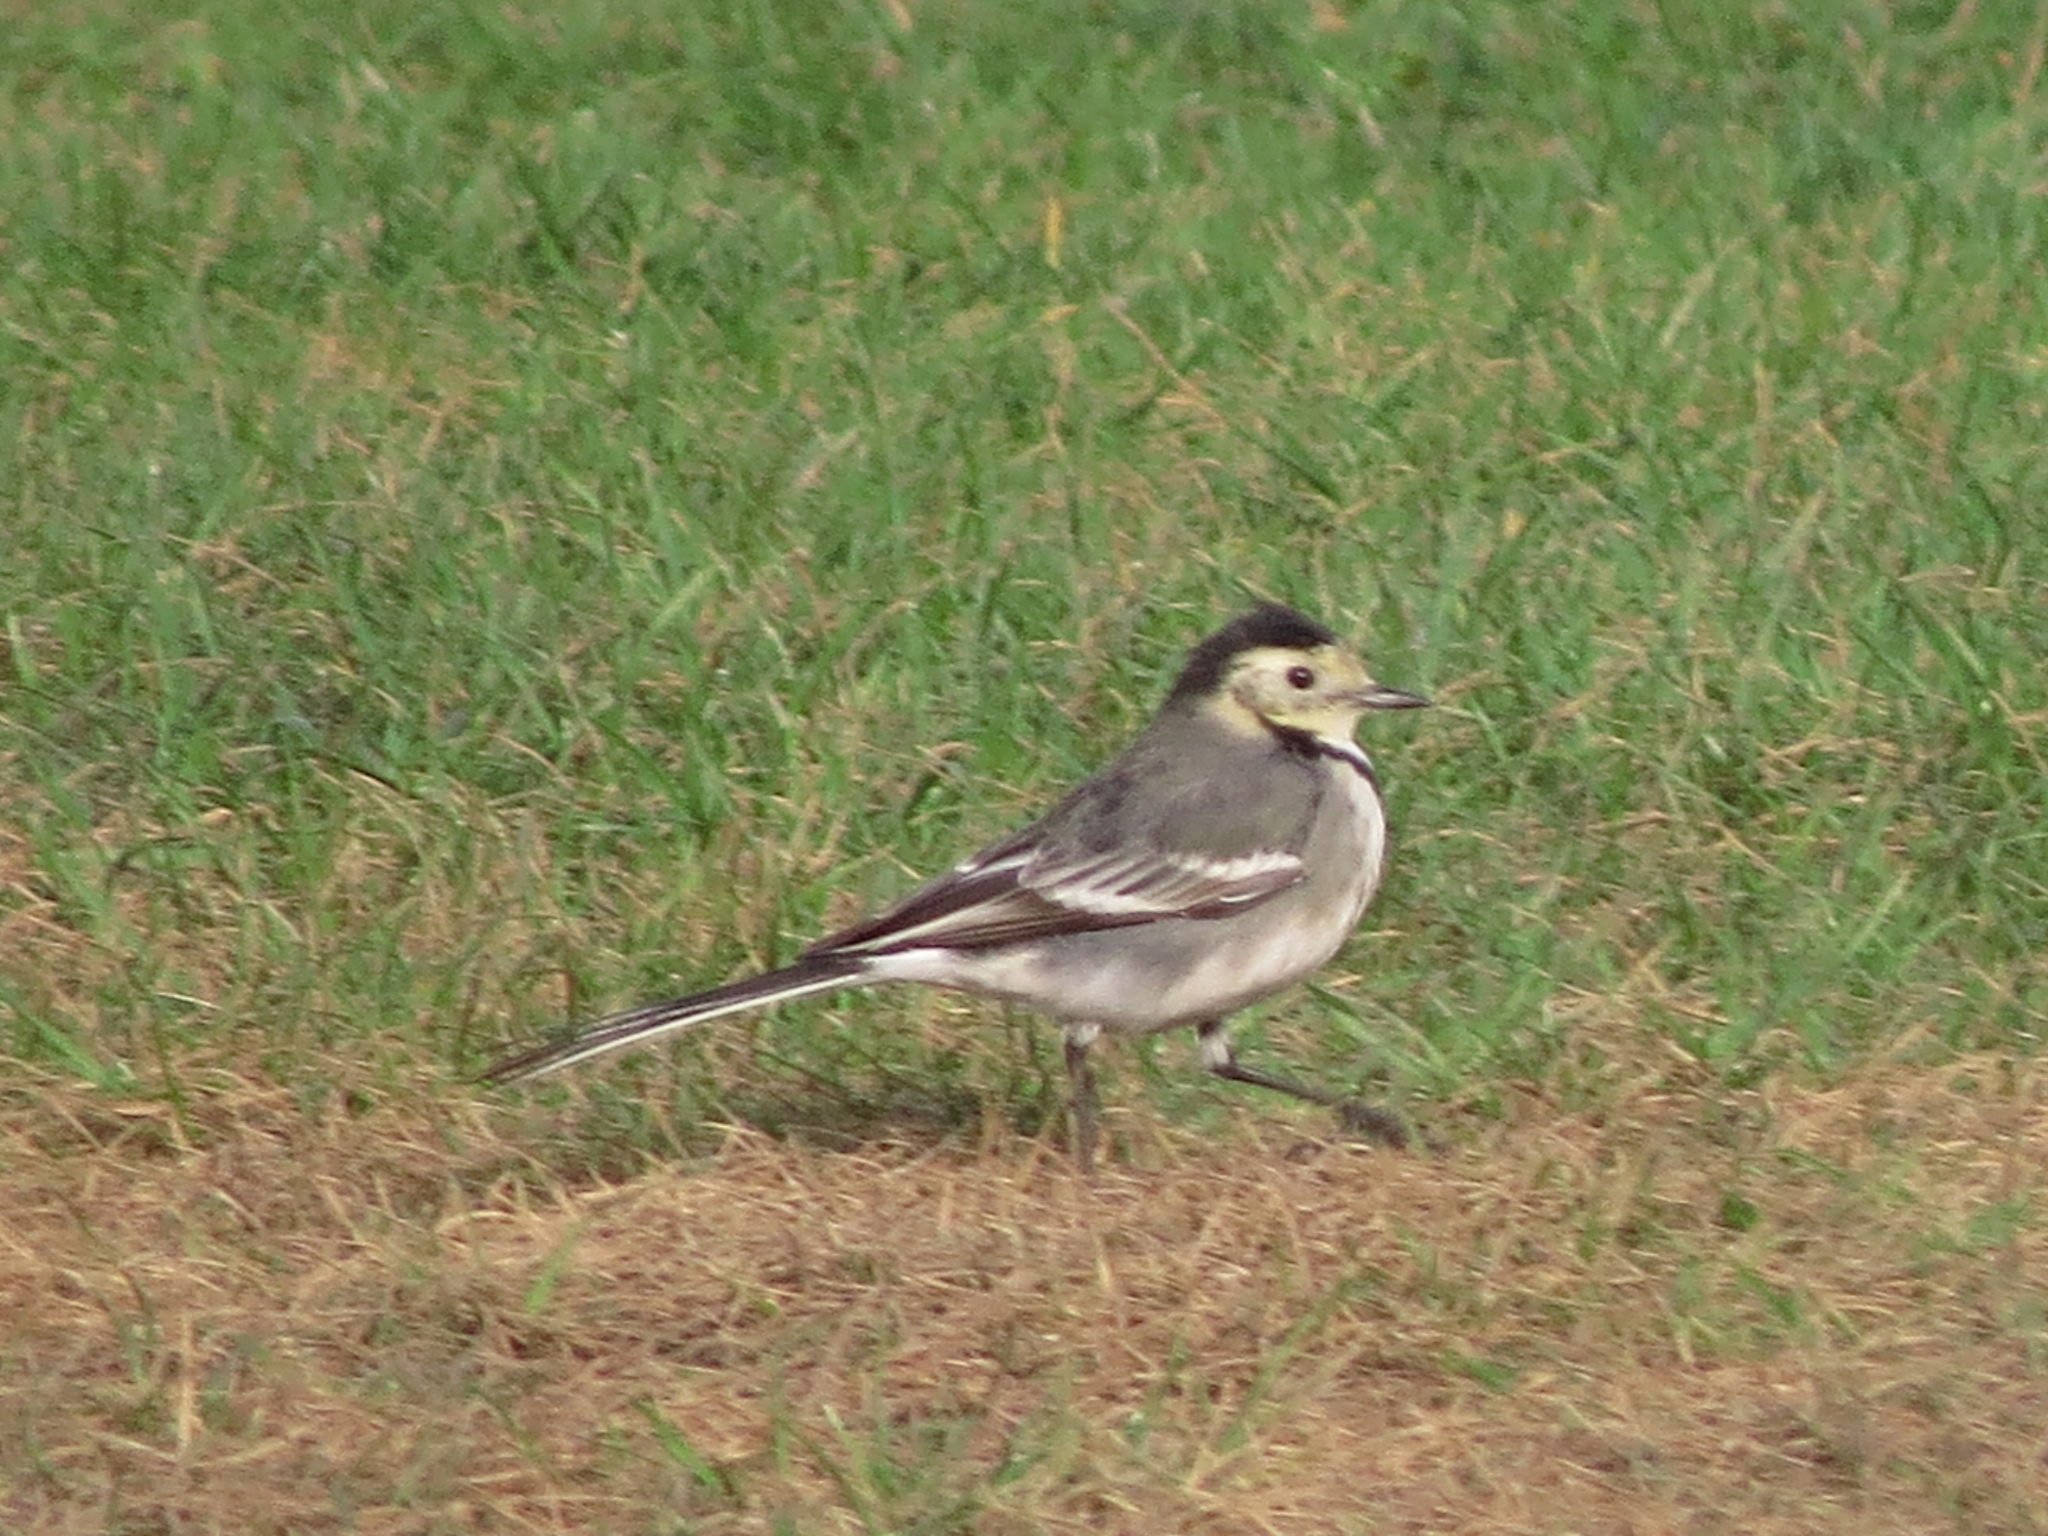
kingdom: Animalia
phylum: Chordata
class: Aves
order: Passeriformes
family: Motacillidae
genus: Motacilla
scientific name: Motacilla alba
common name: White wagtail
